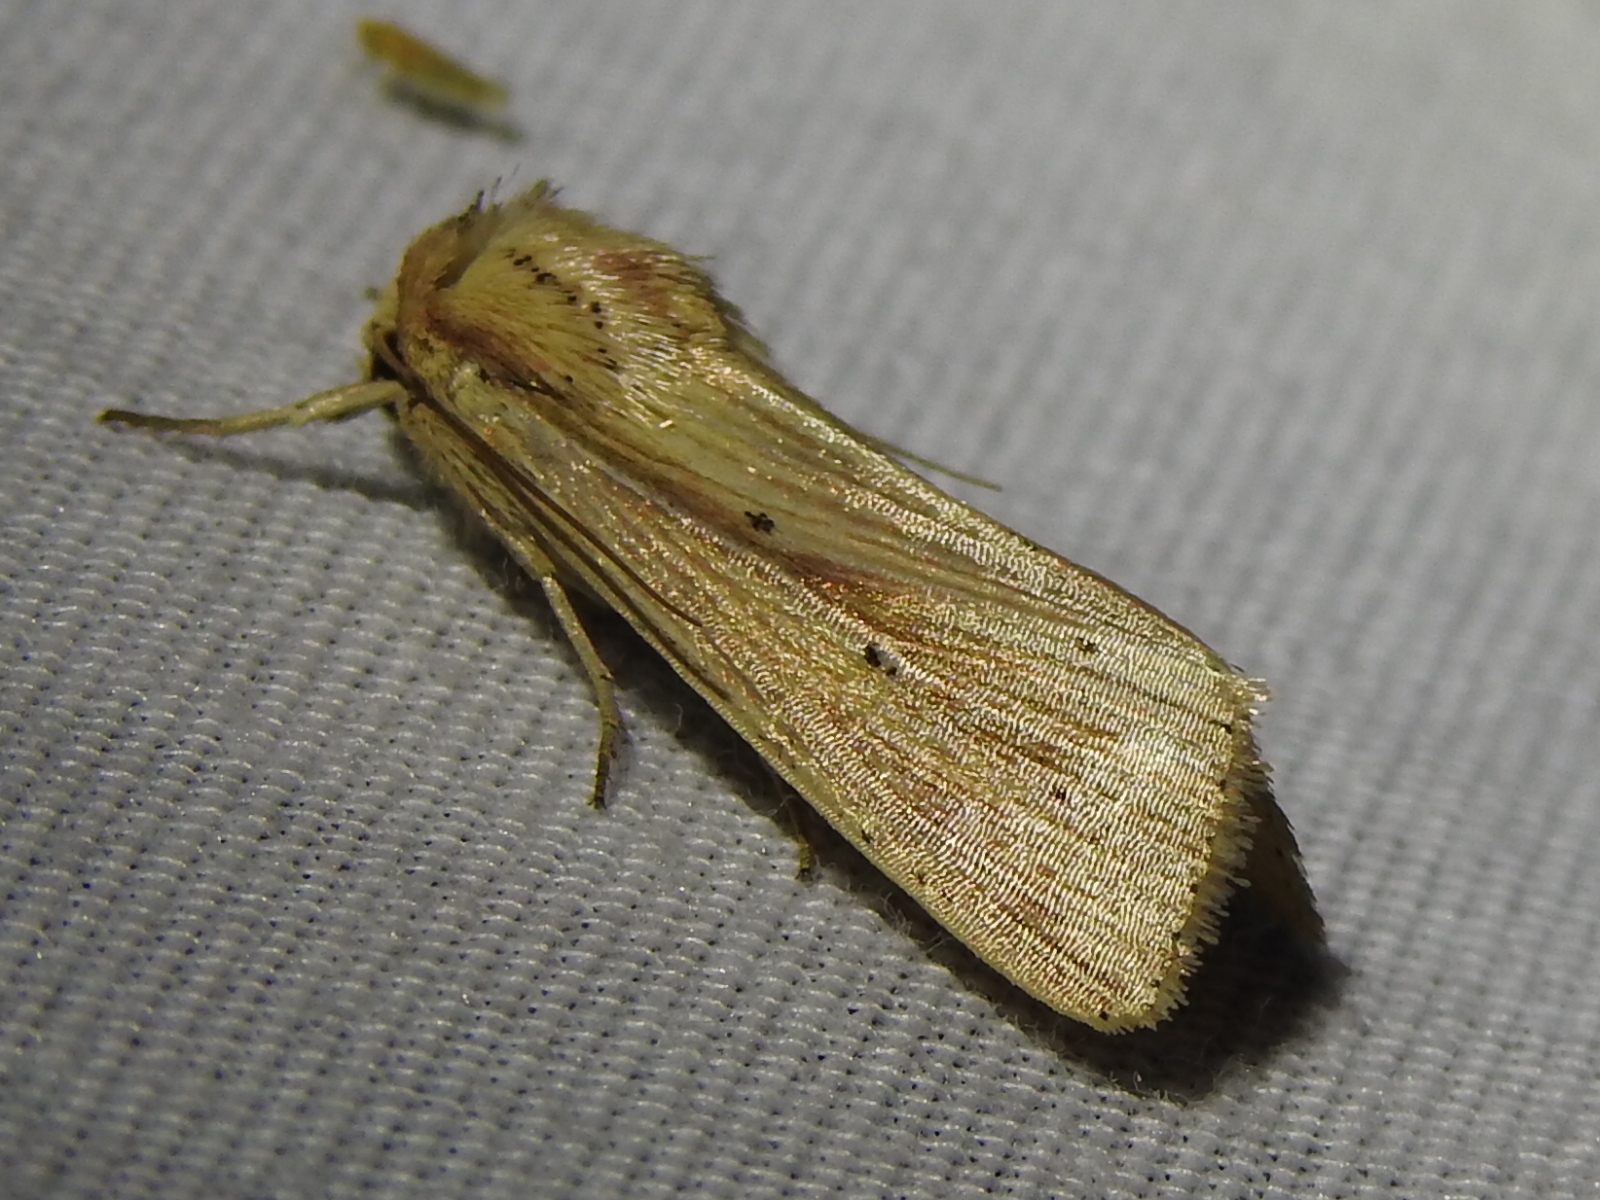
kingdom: Animalia
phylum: Arthropoda
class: Insecta
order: Lepidoptera
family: Noctuidae
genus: Leucania
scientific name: Leucania adjuta
